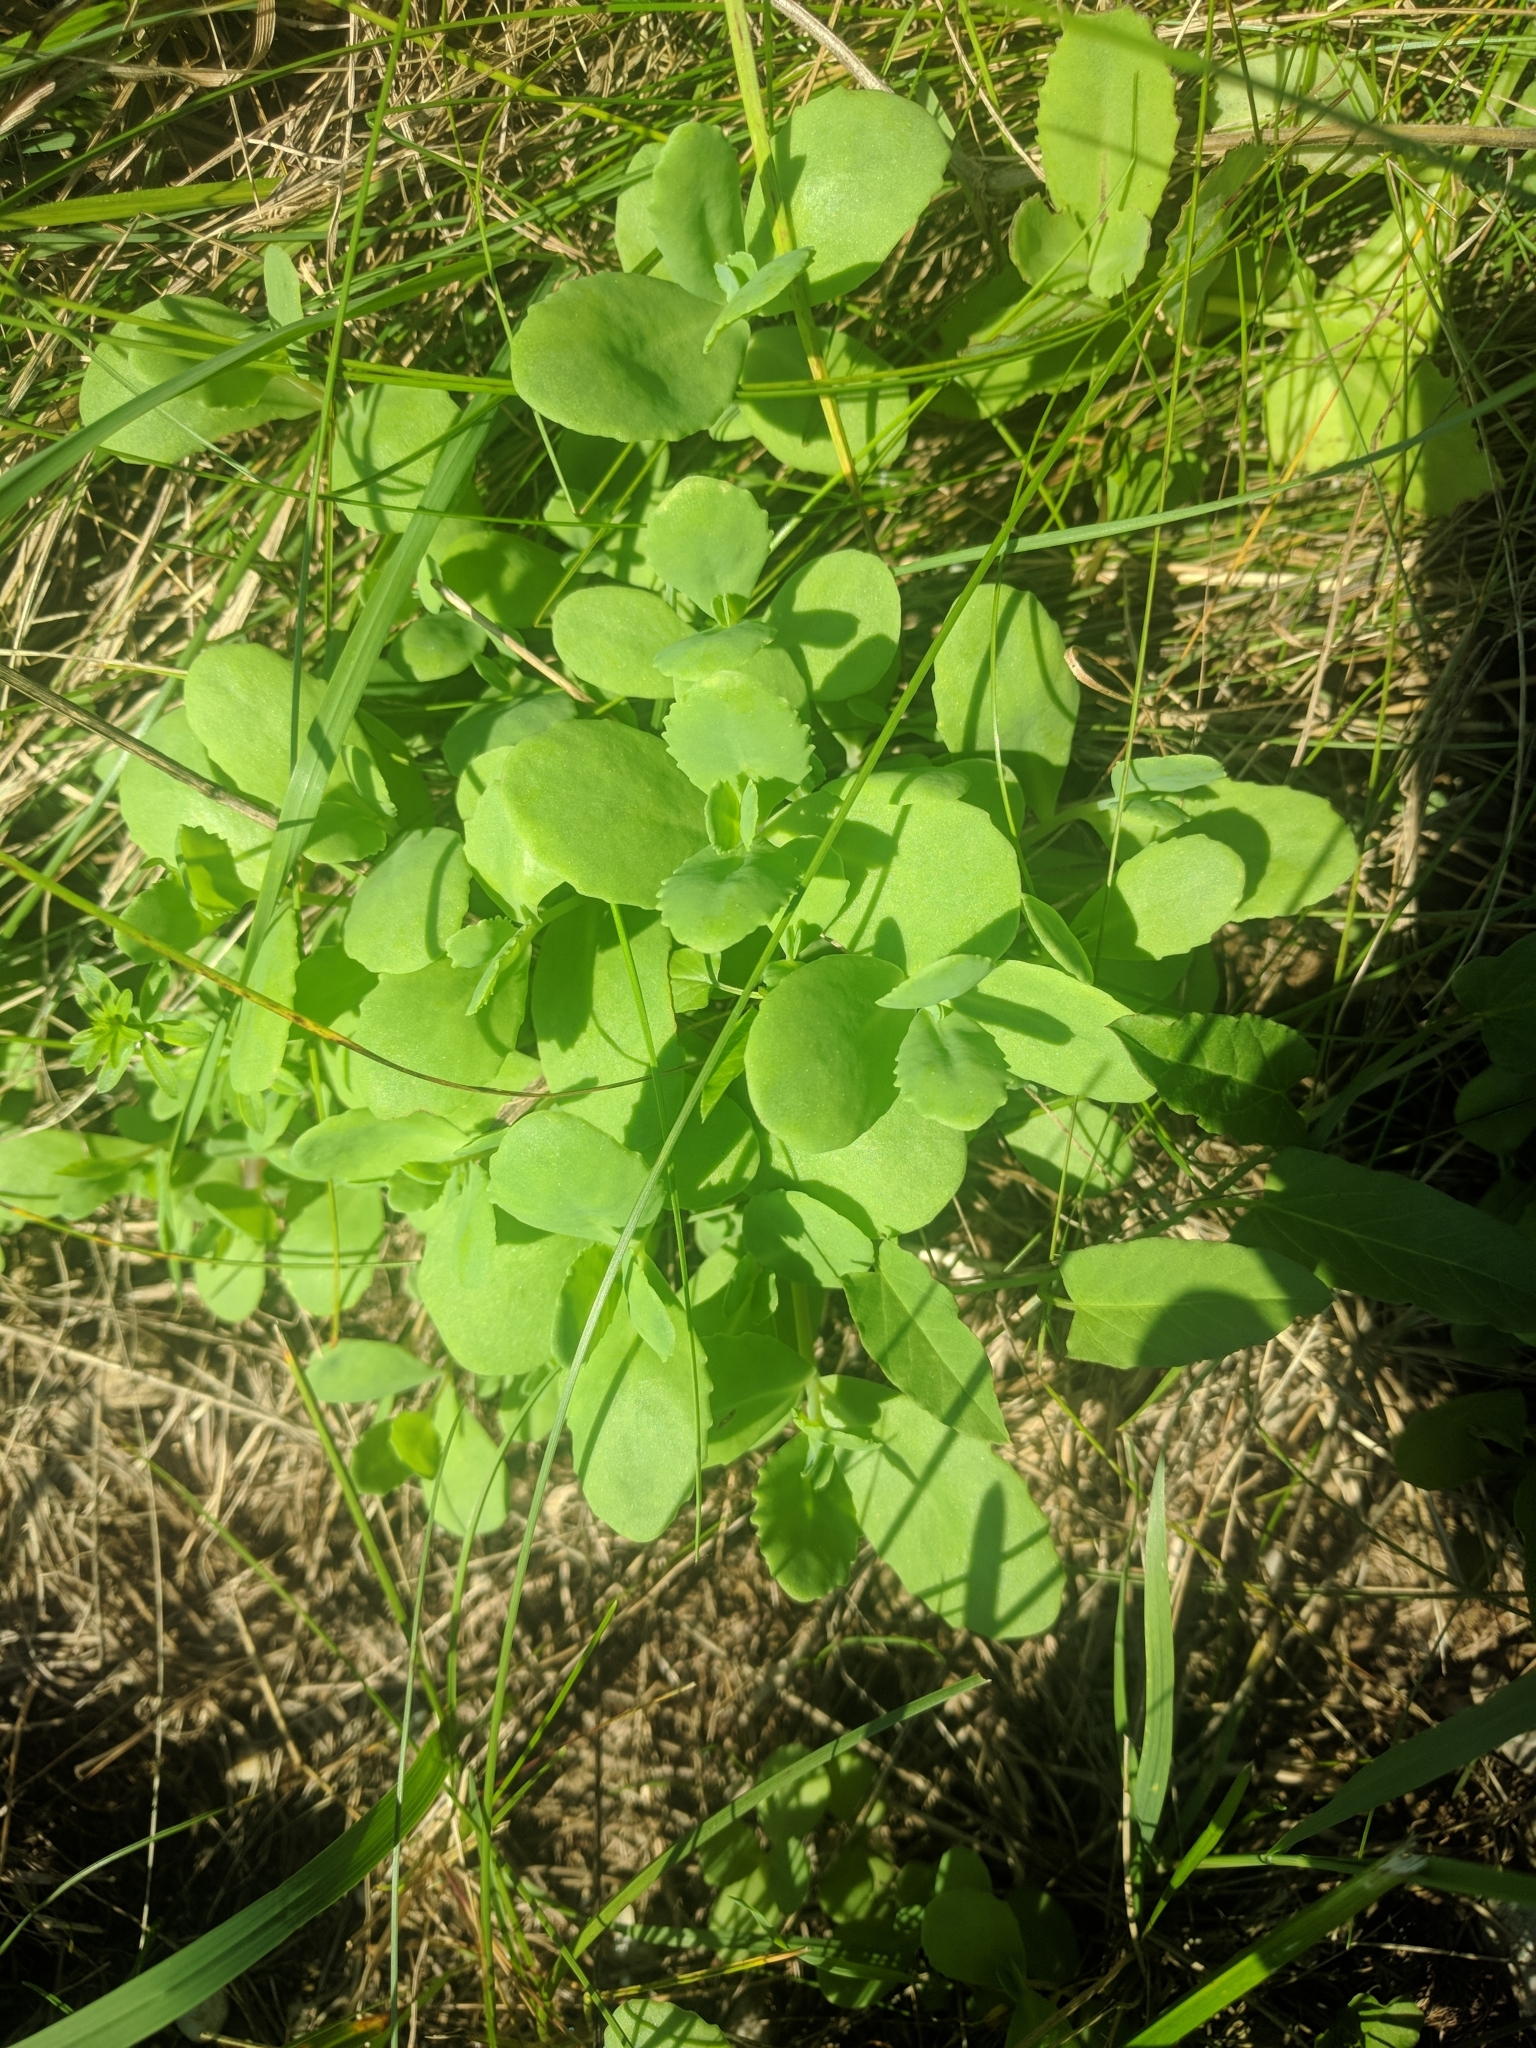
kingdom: Plantae
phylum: Tracheophyta
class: Magnoliopsida
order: Saxifragales
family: Crassulaceae
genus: Hylotelephium
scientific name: Hylotelephium maximum
